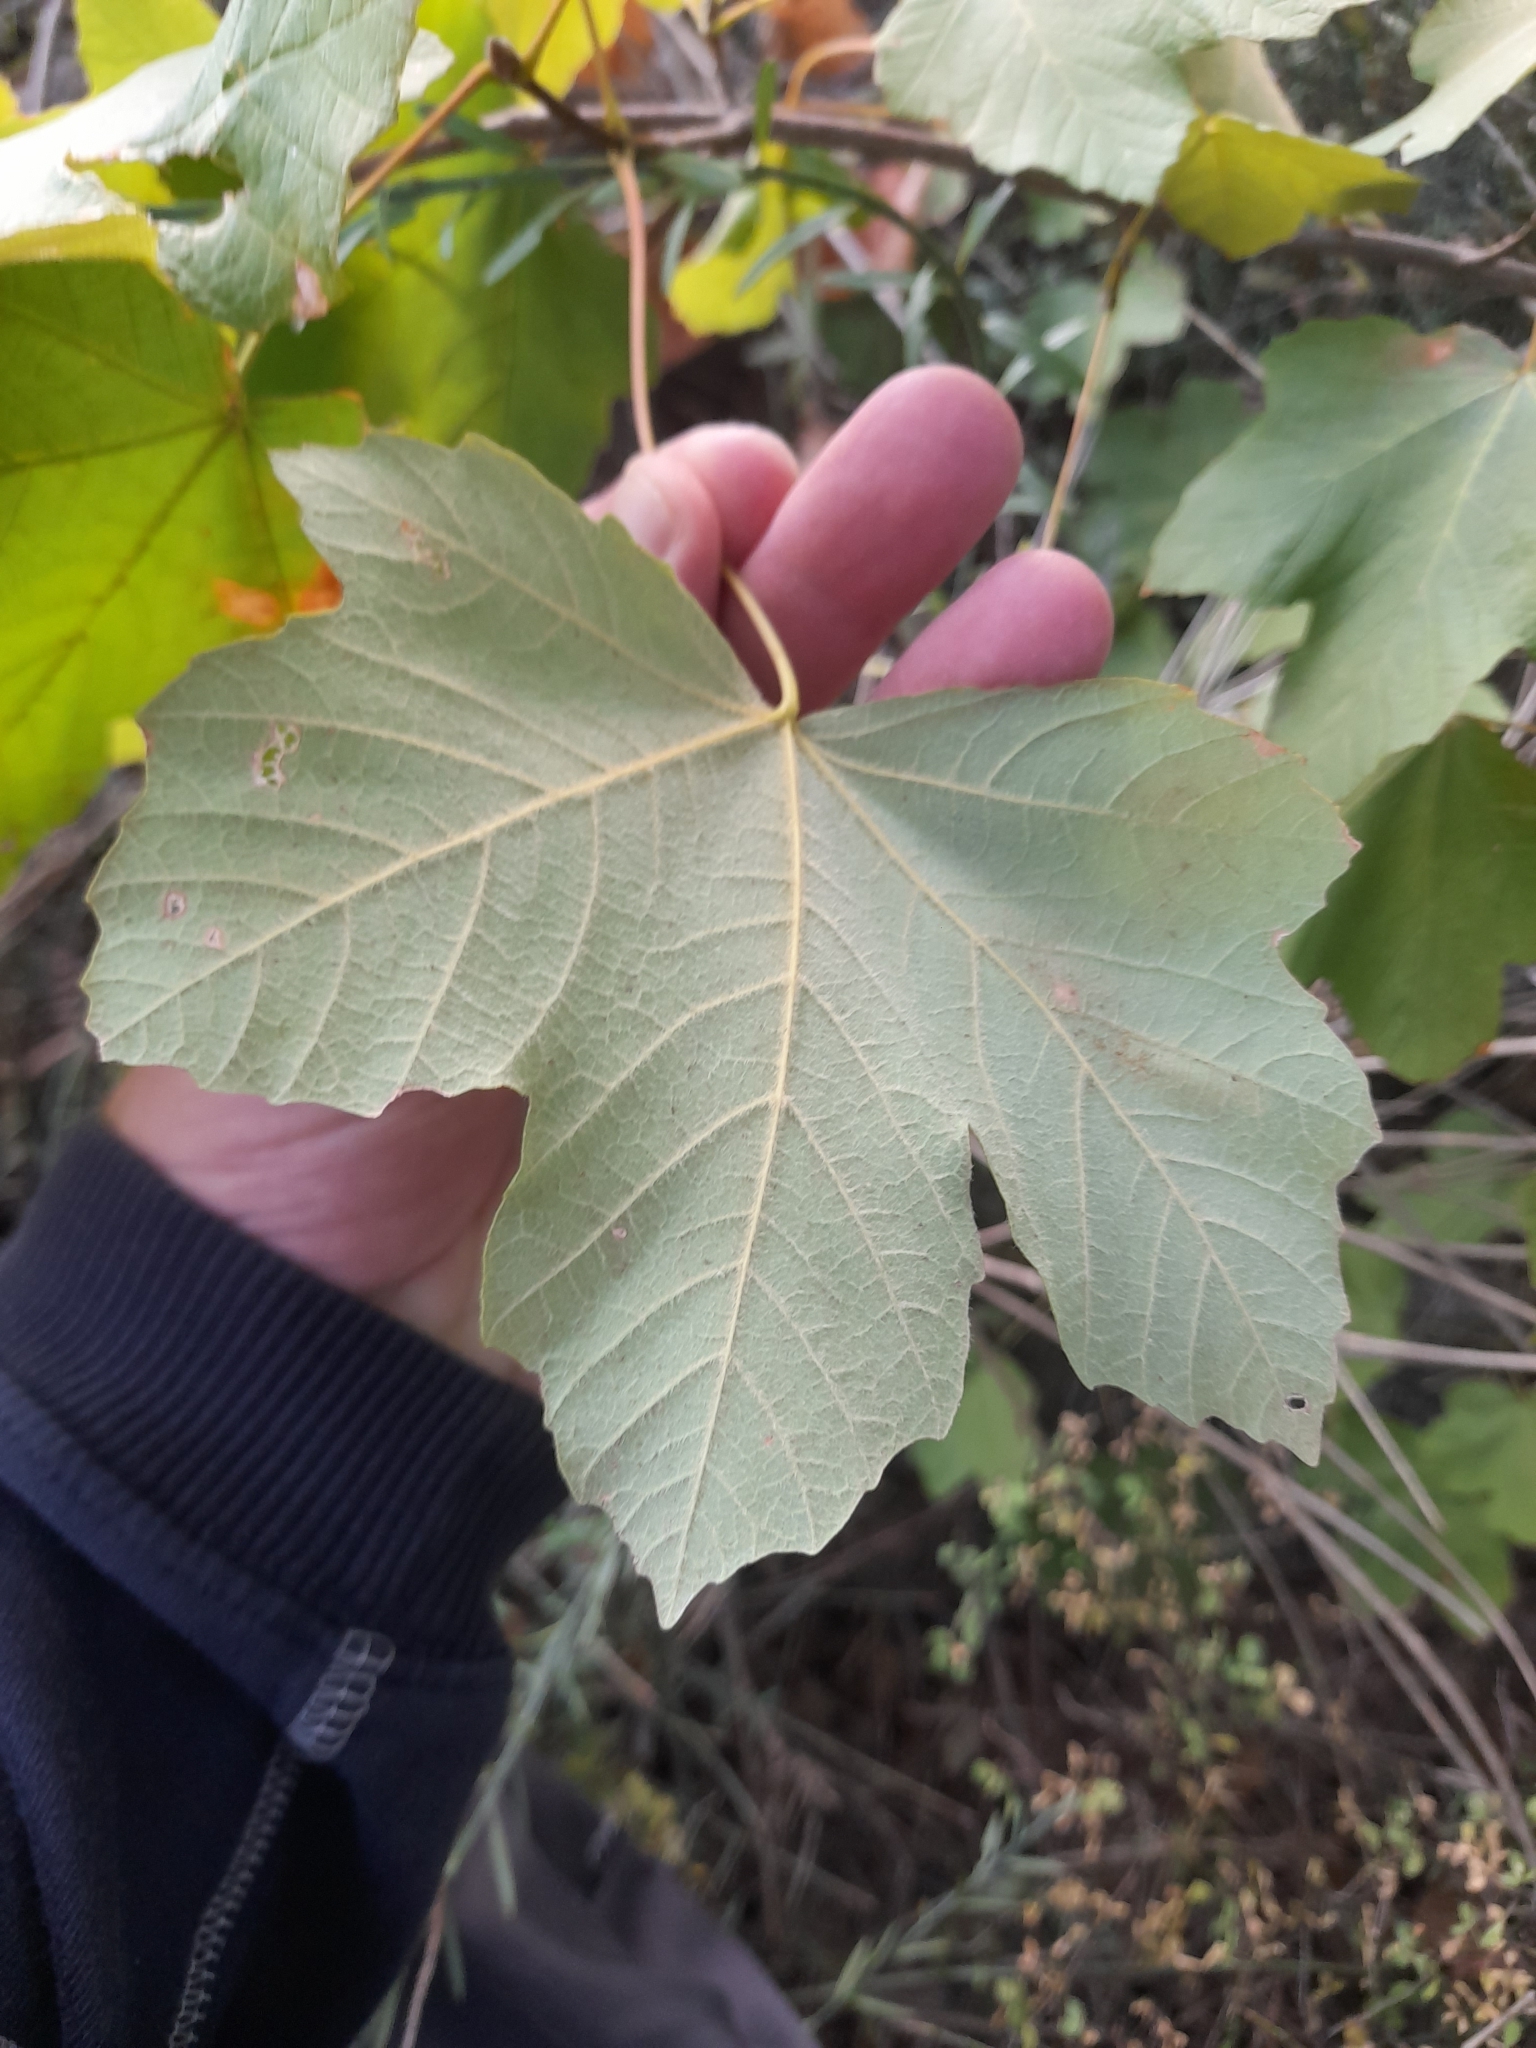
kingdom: Plantae
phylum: Tracheophyta
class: Magnoliopsida
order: Sapindales
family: Sapindaceae
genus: Acer
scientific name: Acer opalus
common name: Italian maple
